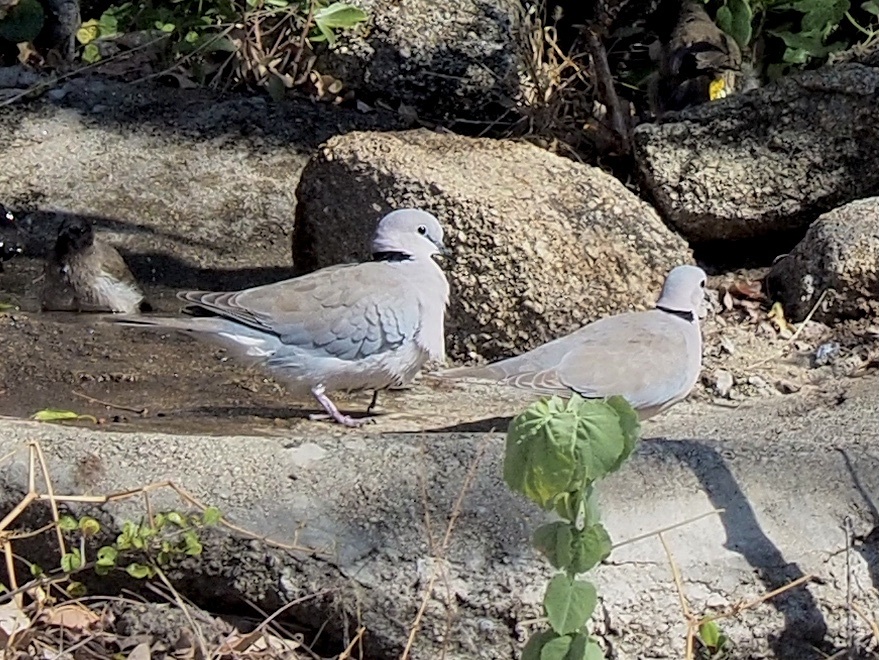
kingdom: Animalia
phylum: Chordata
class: Aves
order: Columbiformes
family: Columbidae
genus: Streptopelia
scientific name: Streptopelia capicola
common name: Ring-necked dove
